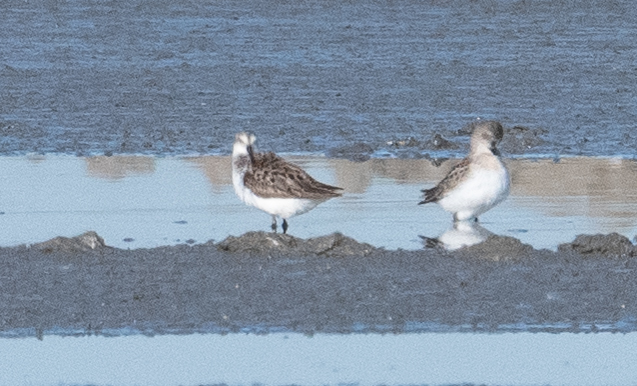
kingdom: Animalia
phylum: Chordata
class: Aves
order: Charadriiformes
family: Scolopacidae
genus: Calidris
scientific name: Calidris mauri
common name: Western sandpiper
